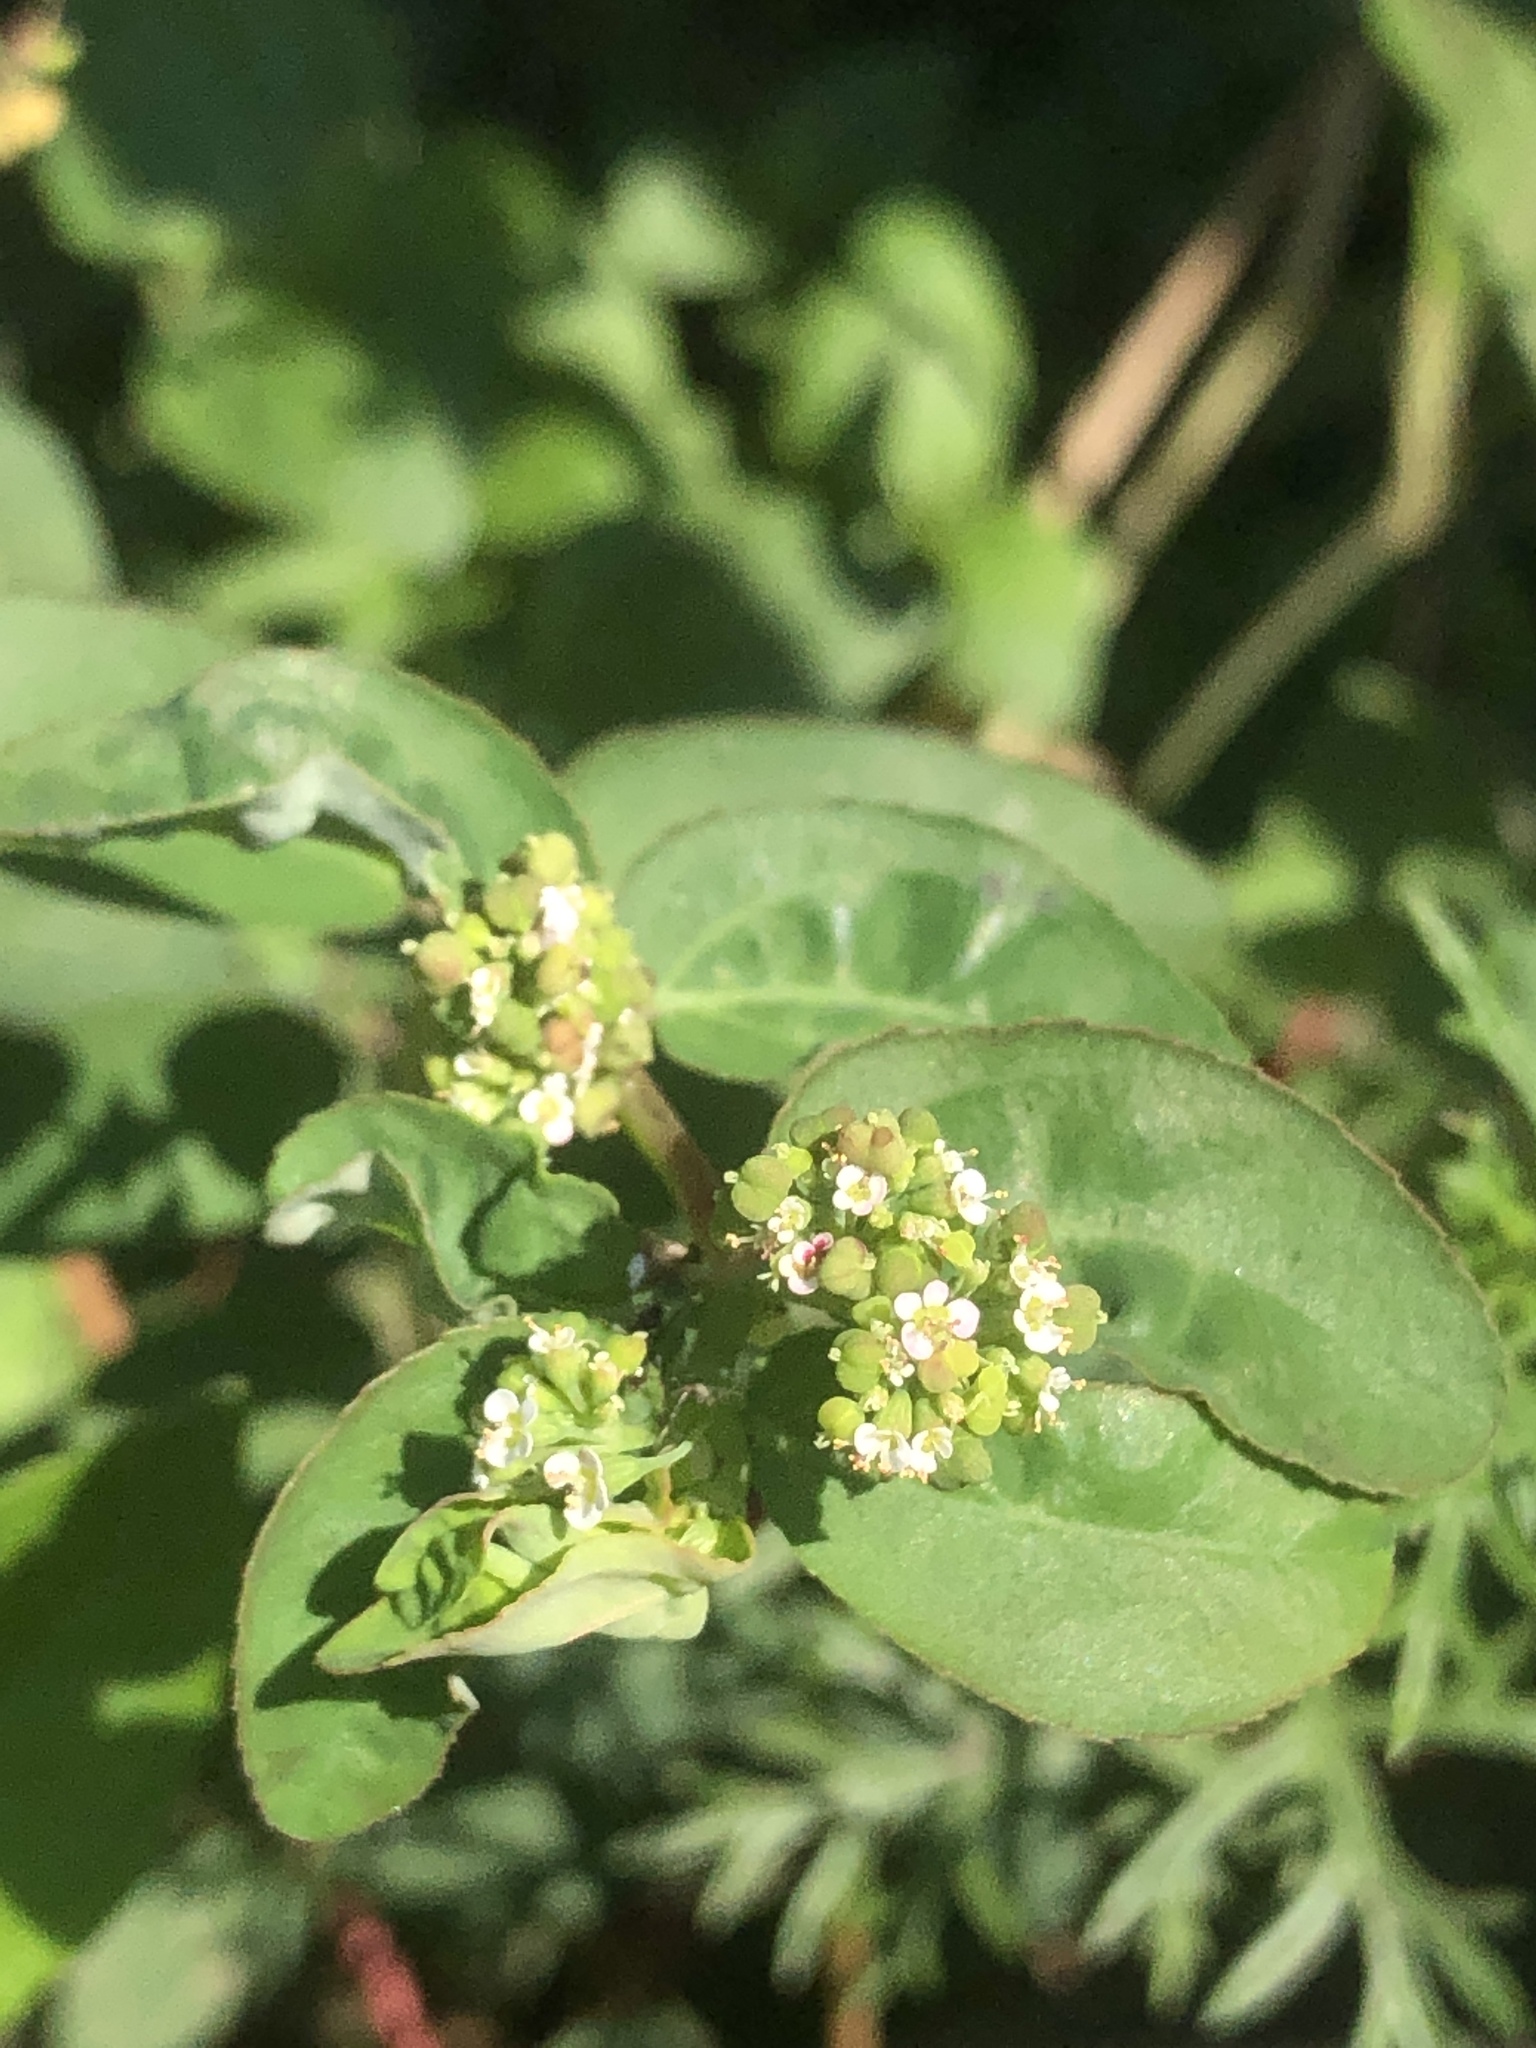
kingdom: Plantae
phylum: Tracheophyta
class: Magnoliopsida
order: Malpighiales
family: Euphorbiaceae
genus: Euphorbia
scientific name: Euphorbia hypericifolia
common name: Graceful sandmat
